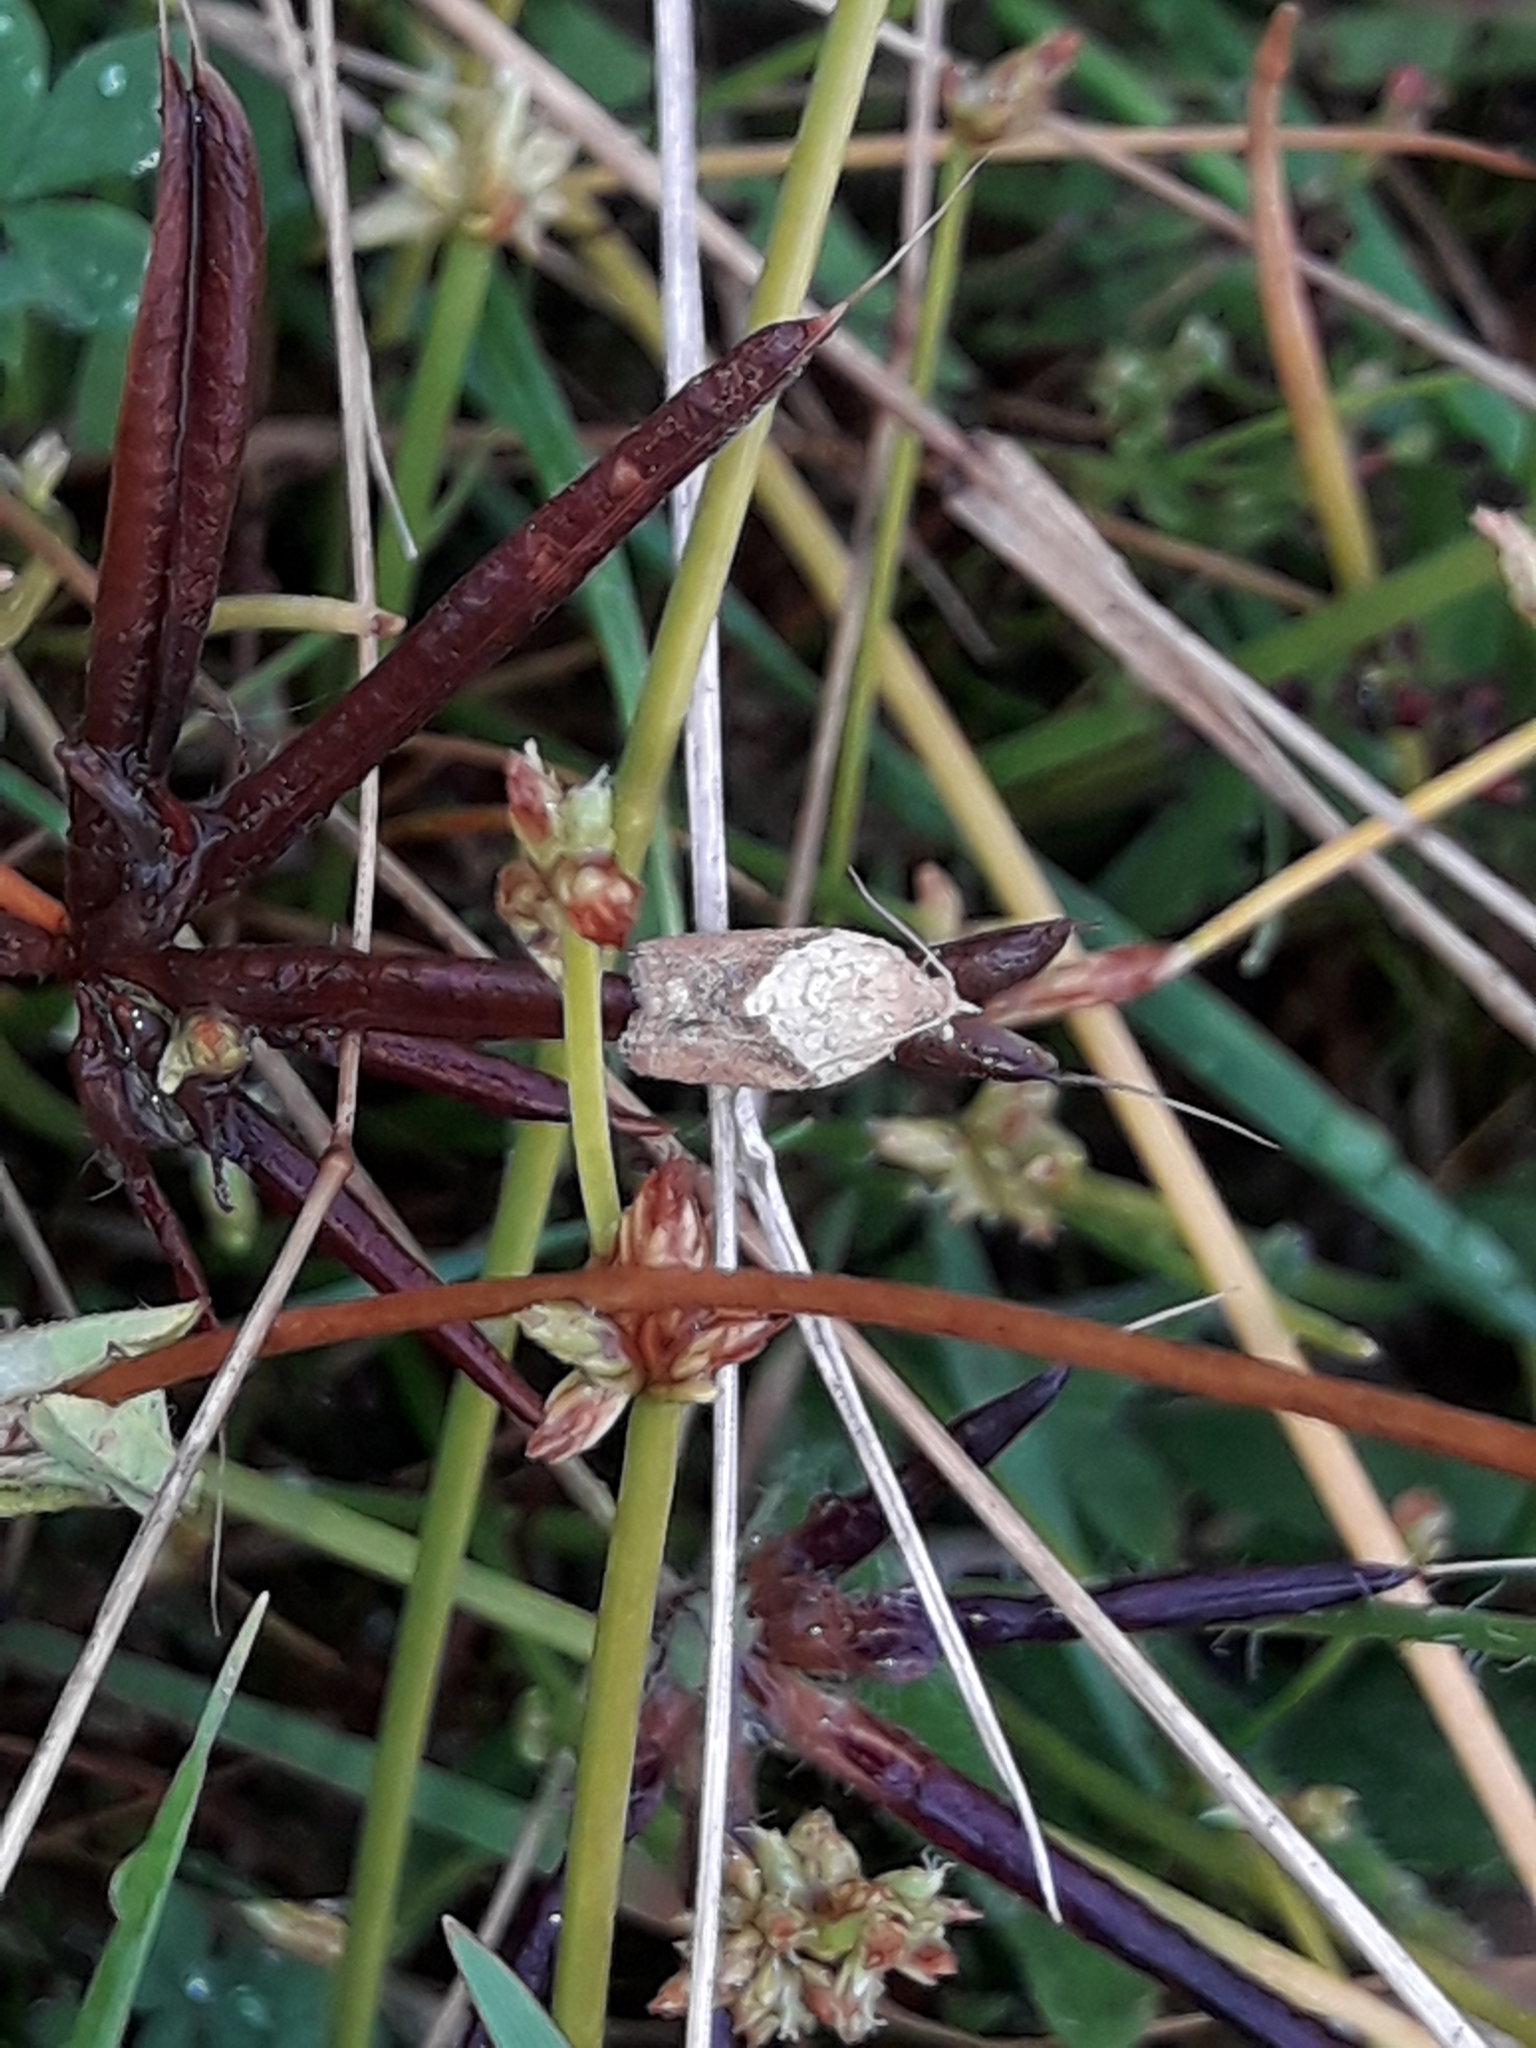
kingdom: Animalia
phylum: Arthropoda
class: Insecta
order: Lepidoptera
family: Tortricidae
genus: Epiphyas
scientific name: Epiphyas postvittana
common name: Light brown apple moth
